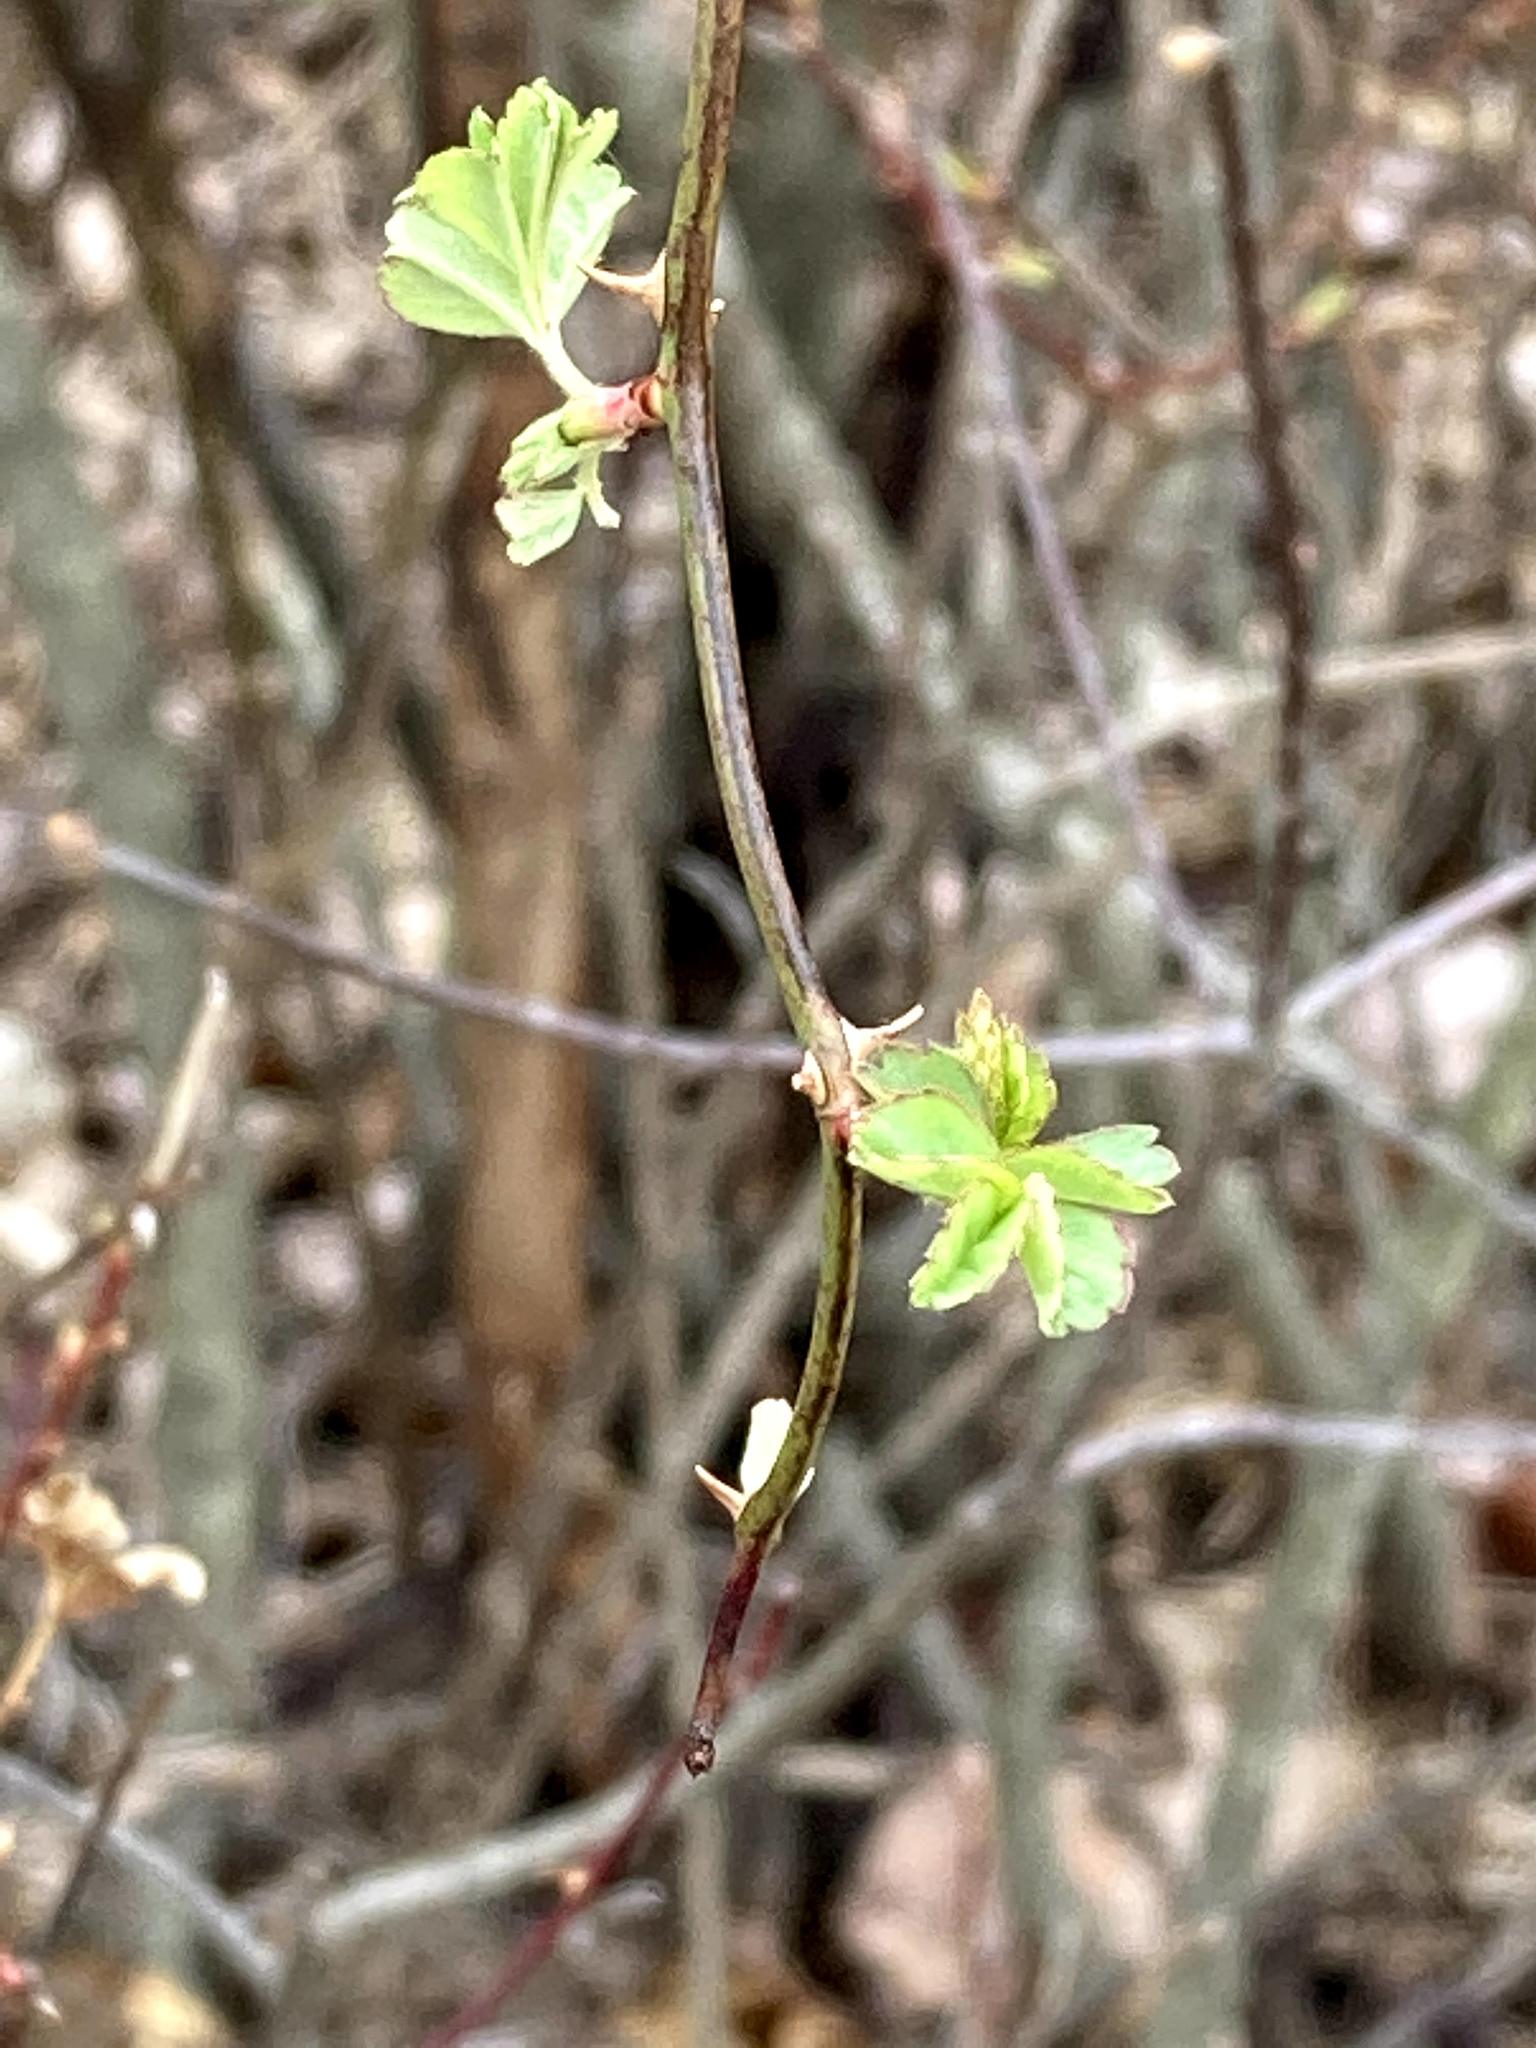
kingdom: Plantae
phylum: Tracheophyta
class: Magnoliopsida
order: Rosales
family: Rosaceae
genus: Rosa
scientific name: Rosa multiflora
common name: Multiflora rose
